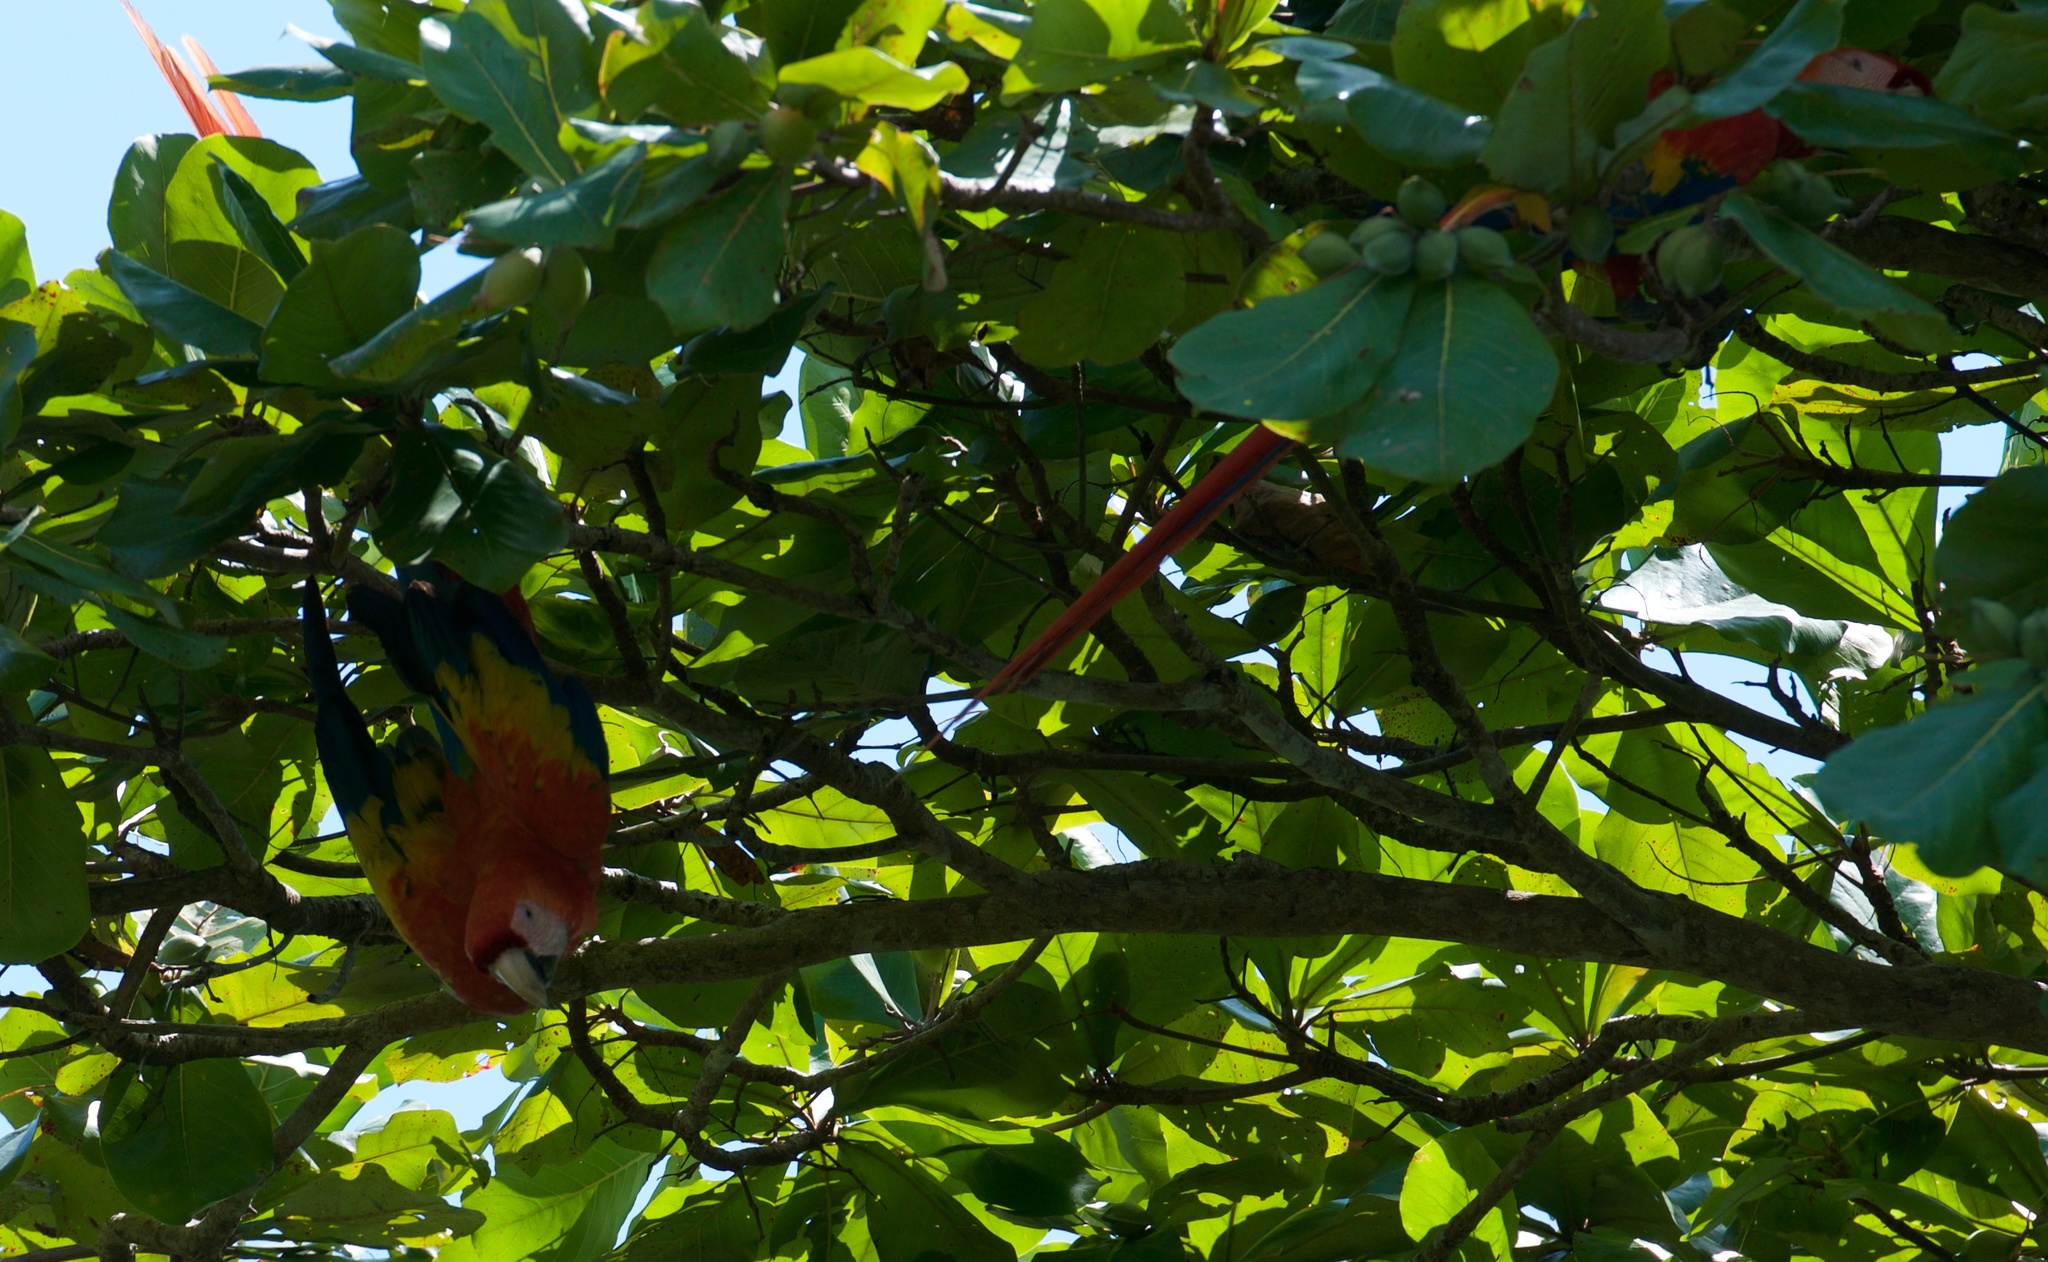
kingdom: Animalia
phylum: Chordata
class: Aves
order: Psittaciformes
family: Psittacidae
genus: Ara
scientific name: Ara macao
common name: Scarlet macaw
